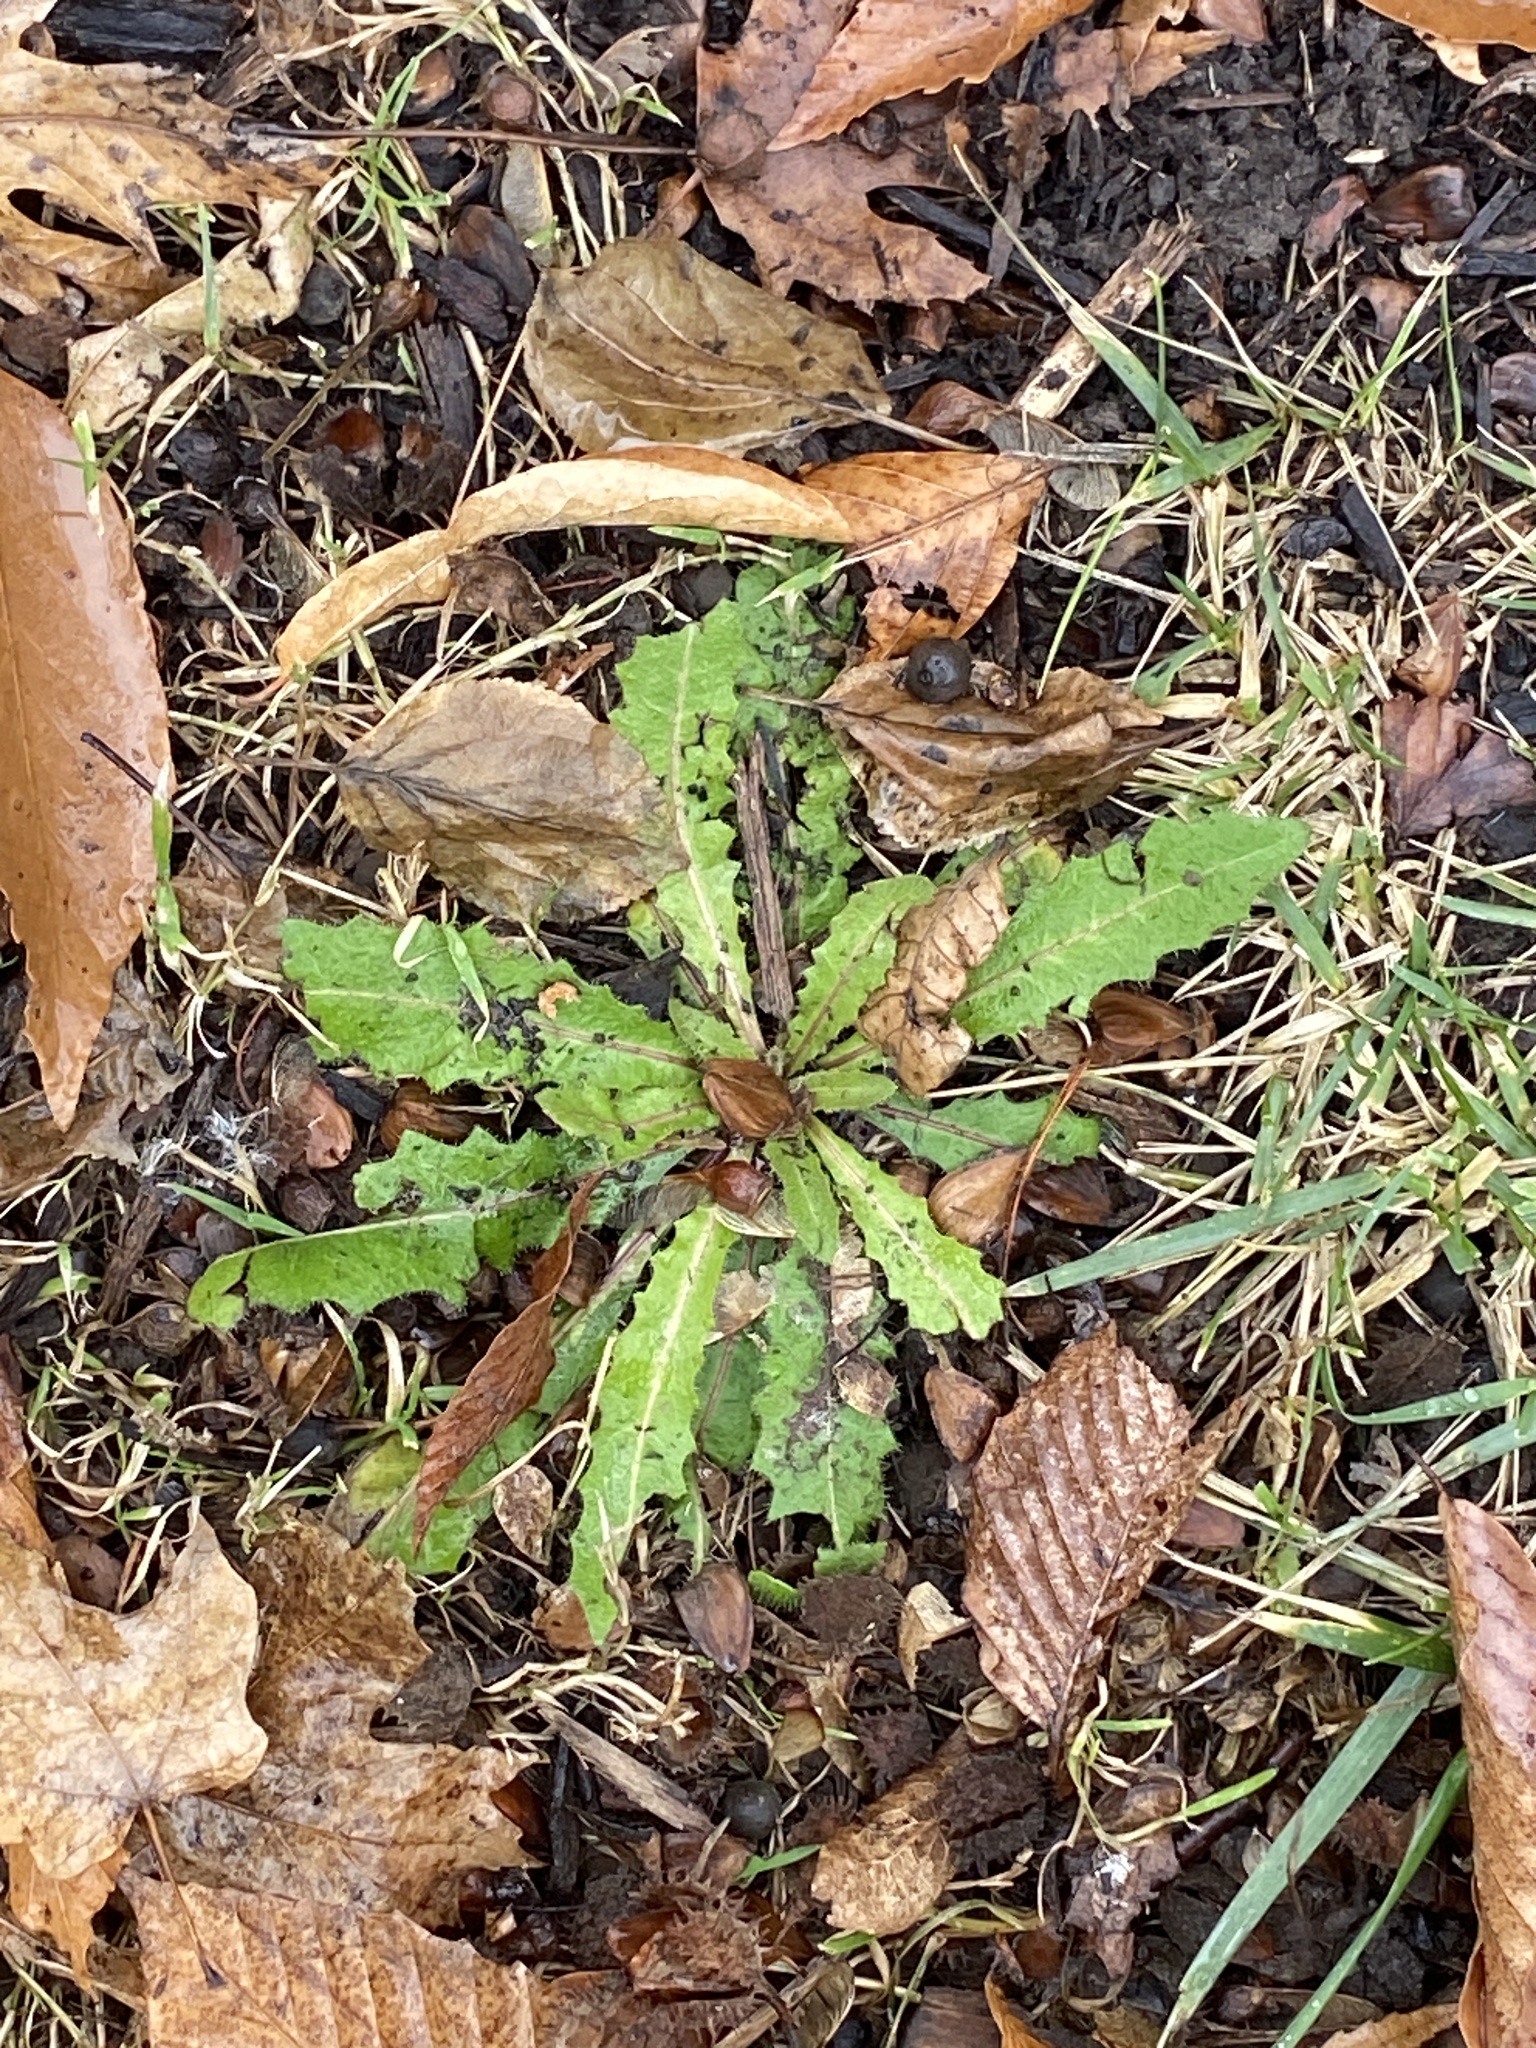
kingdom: Plantae
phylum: Tracheophyta
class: Magnoliopsida
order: Asterales
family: Asteraceae
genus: Picris
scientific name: Picris hieracioides
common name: Hawkweed oxtongue
